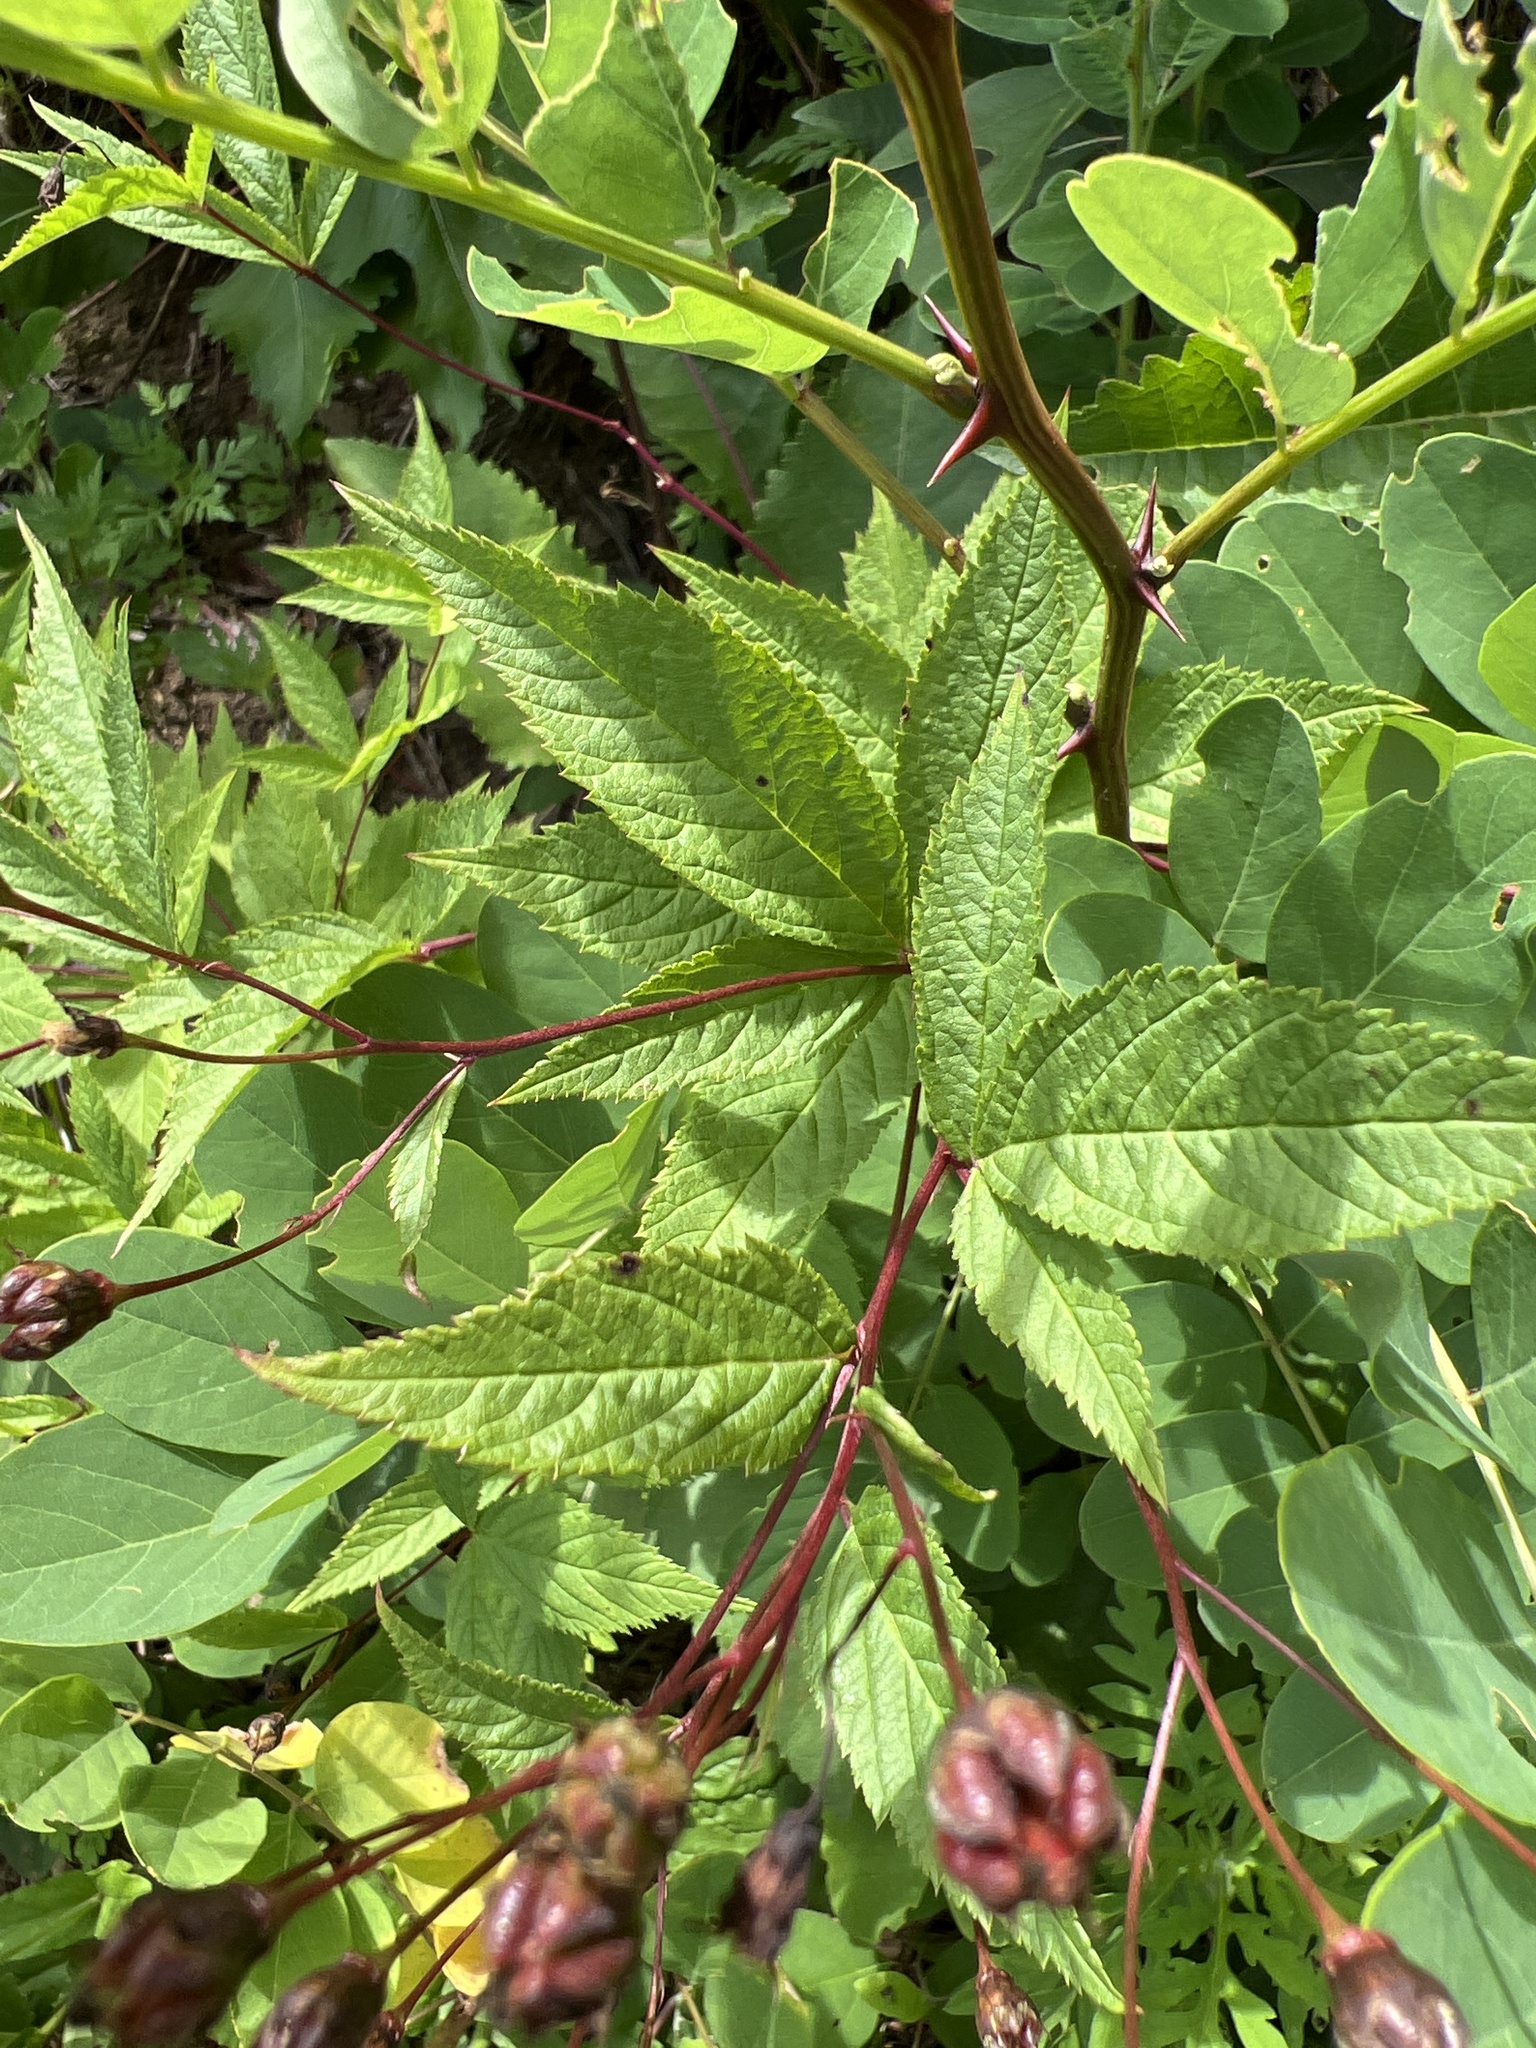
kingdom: Plantae
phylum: Tracheophyta
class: Magnoliopsida
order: Rosales
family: Rosaceae
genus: Gillenia
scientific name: Gillenia trifoliata
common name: Bowman's-root
